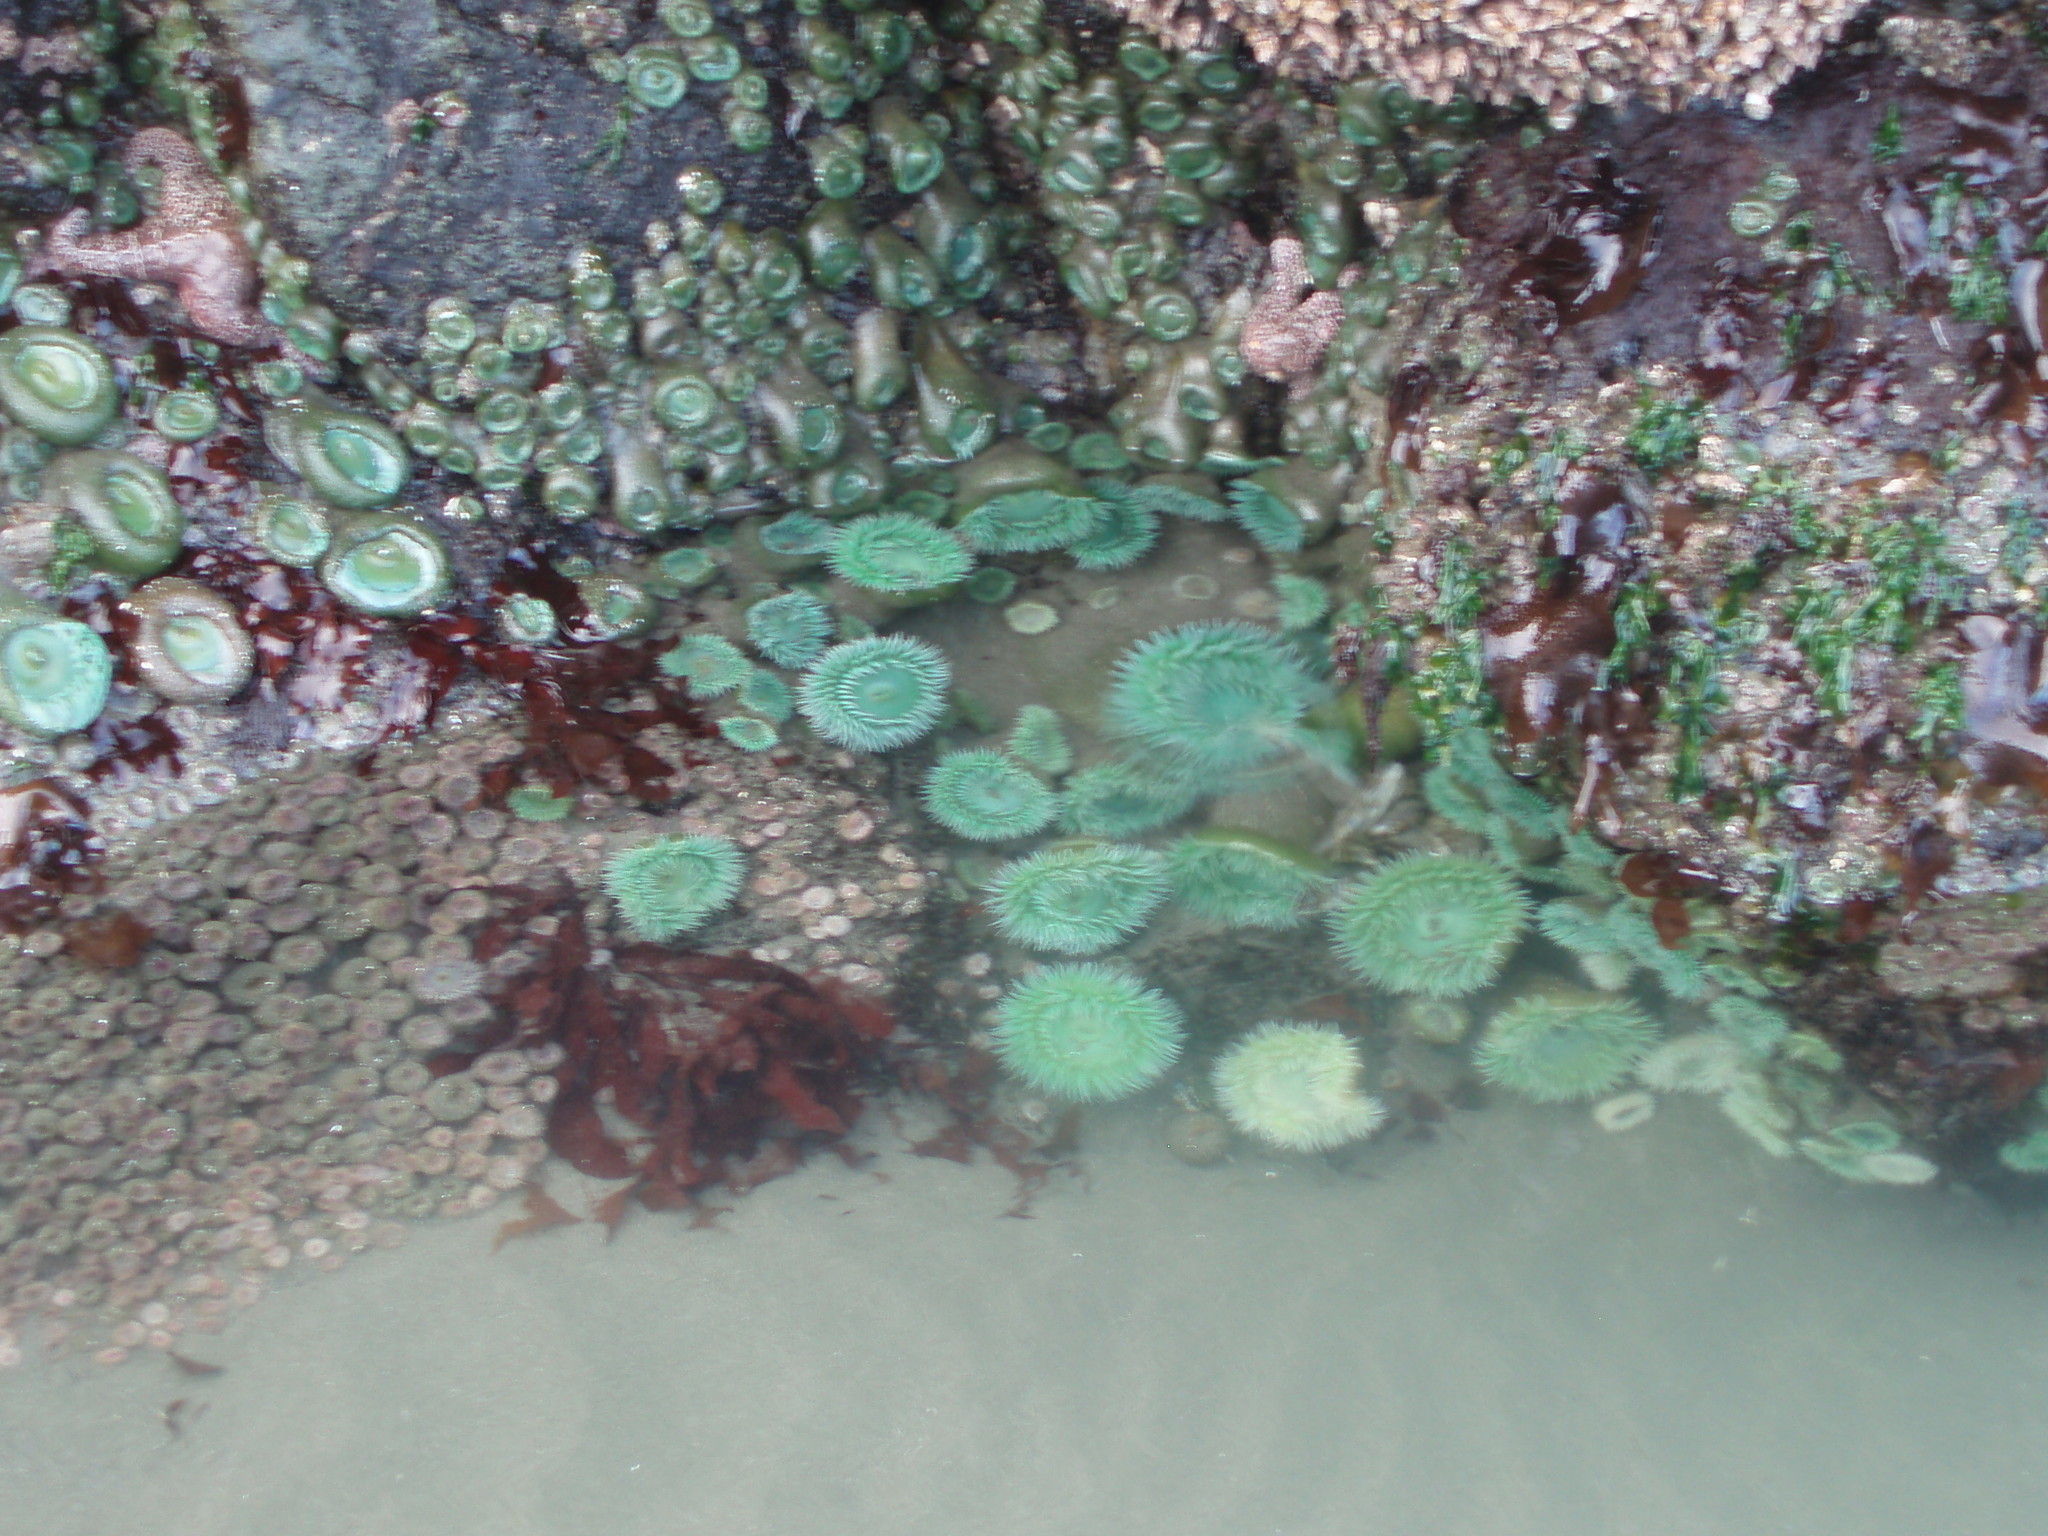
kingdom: Animalia
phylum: Cnidaria
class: Anthozoa
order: Actiniaria
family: Actiniidae
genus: Anthopleura
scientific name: Anthopleura xanthogrammica
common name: Giant green anemone
